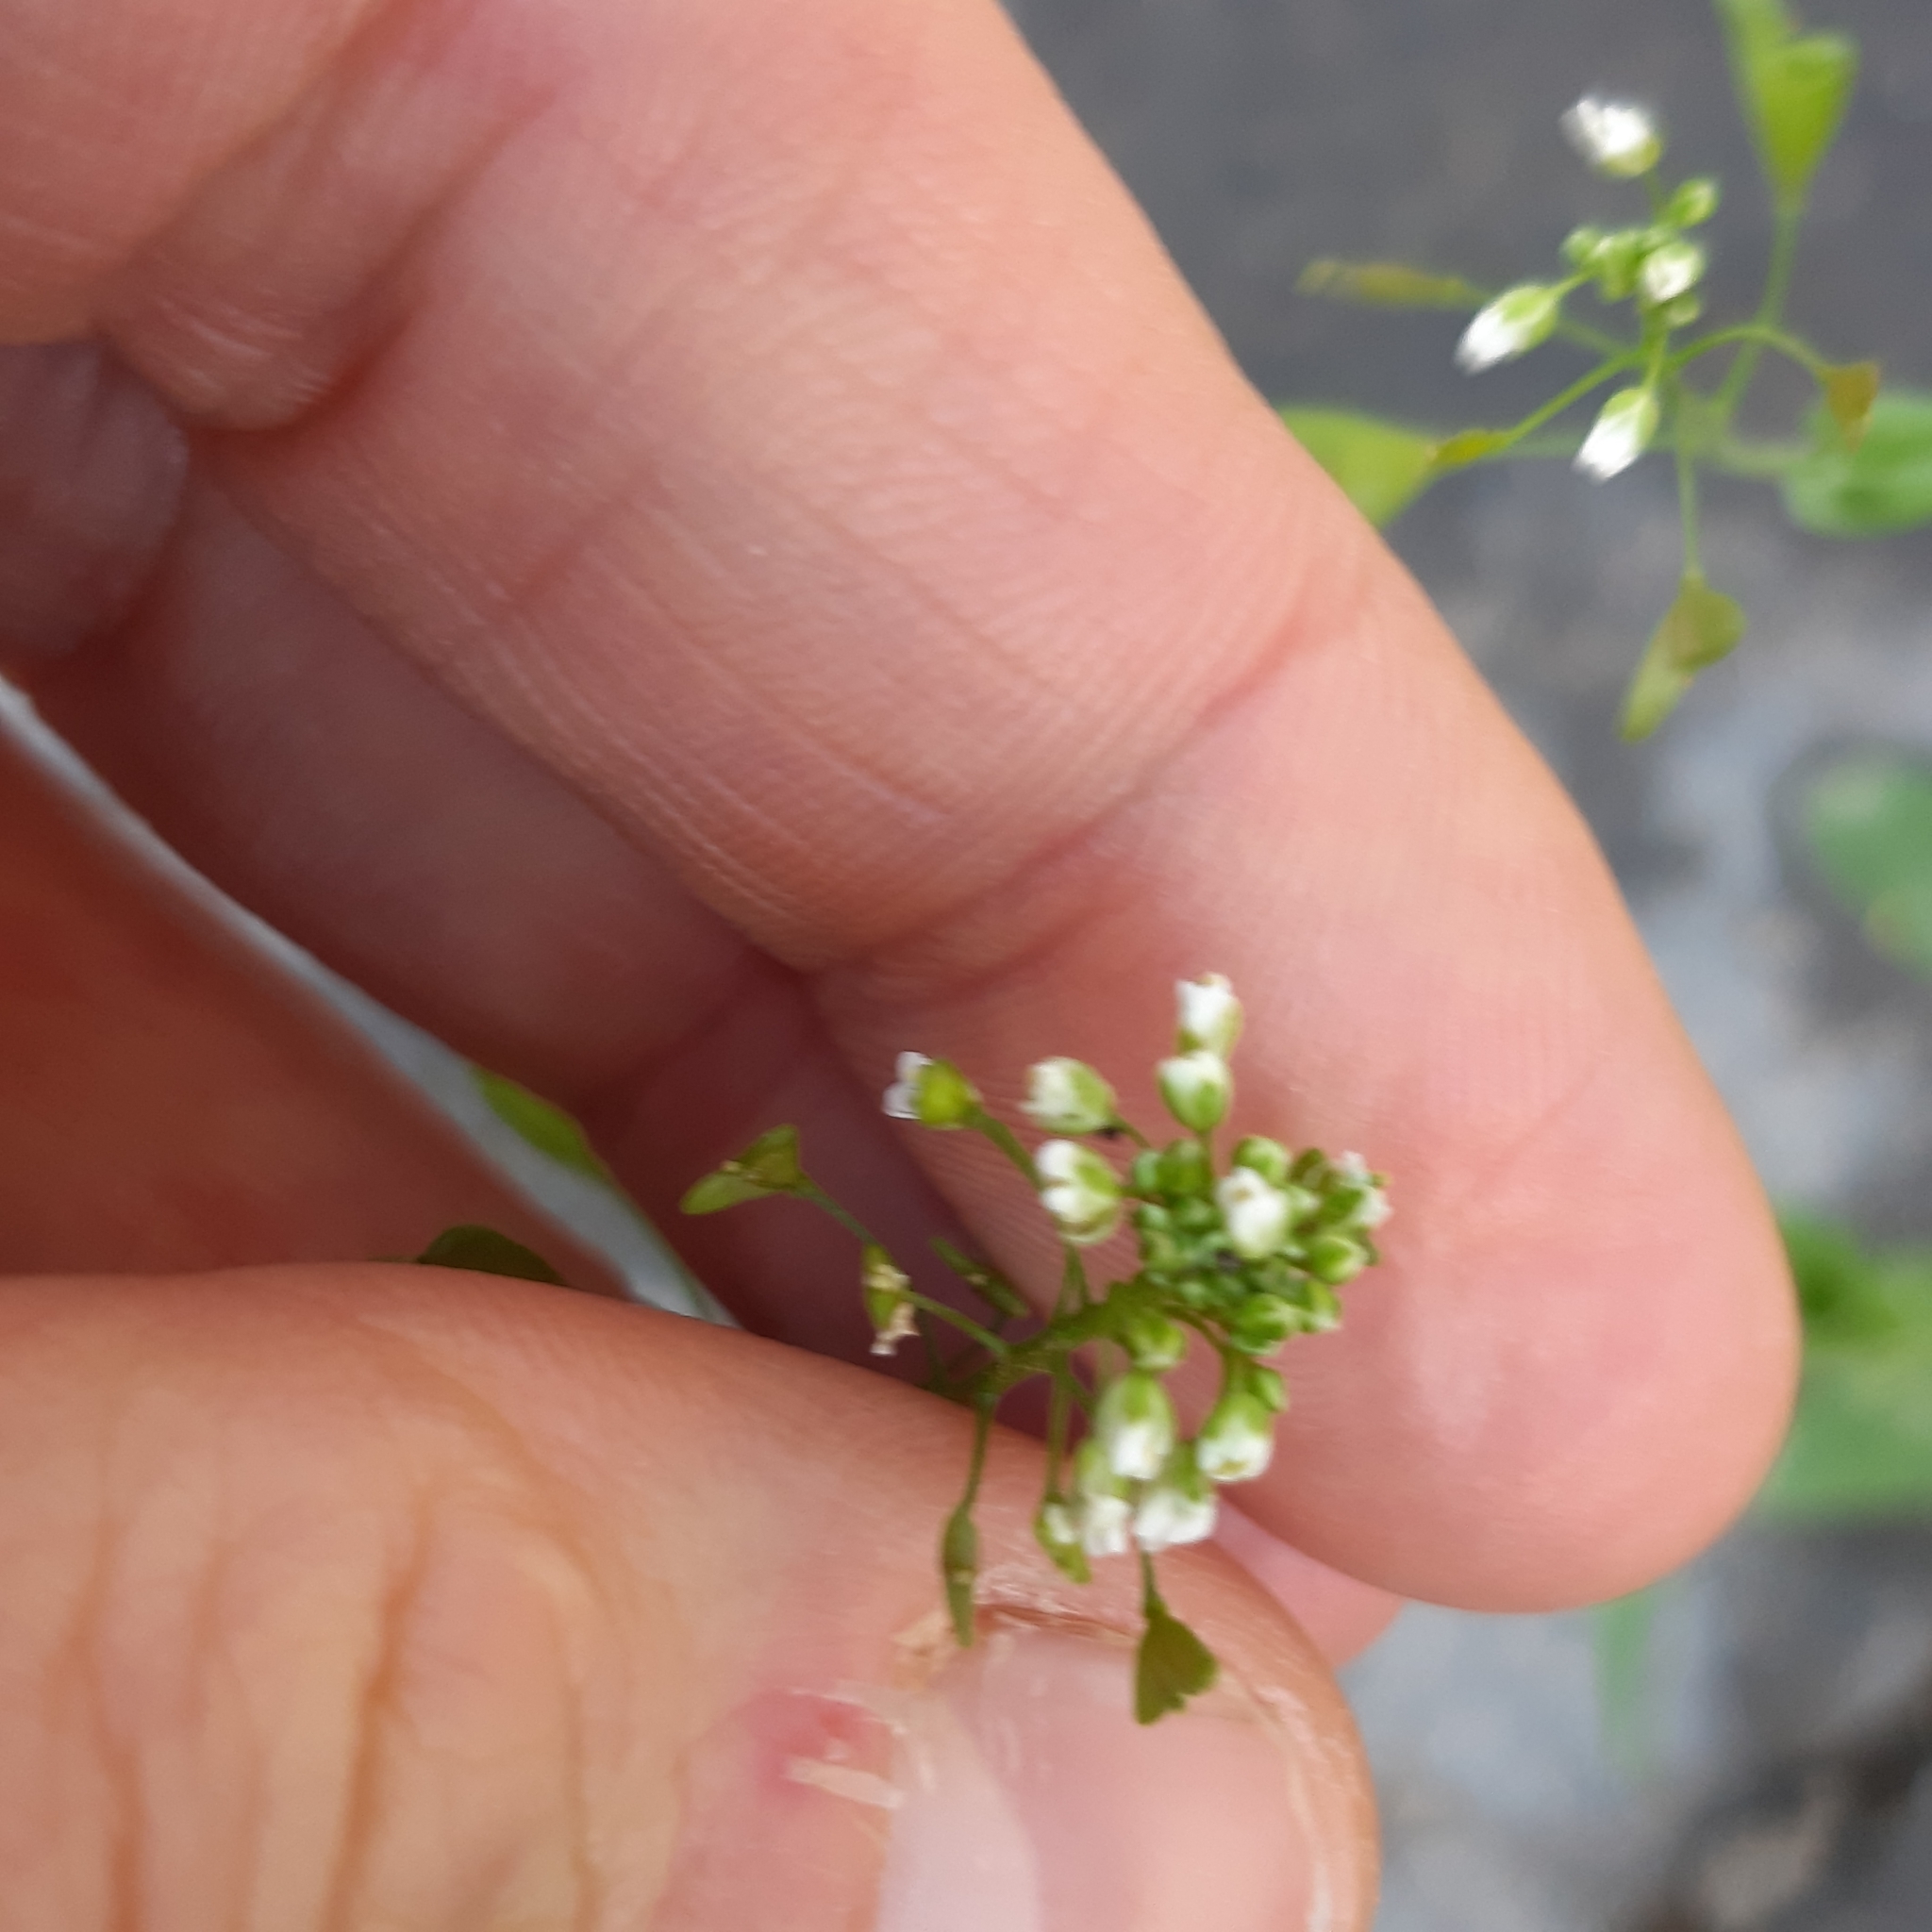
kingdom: Plantae
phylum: Tracheophyta
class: Magnoliopsida
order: Brassicales
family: Brassicaceae
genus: Capsella
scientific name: Capsella bursa-pastoris
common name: Shepherd's purse
